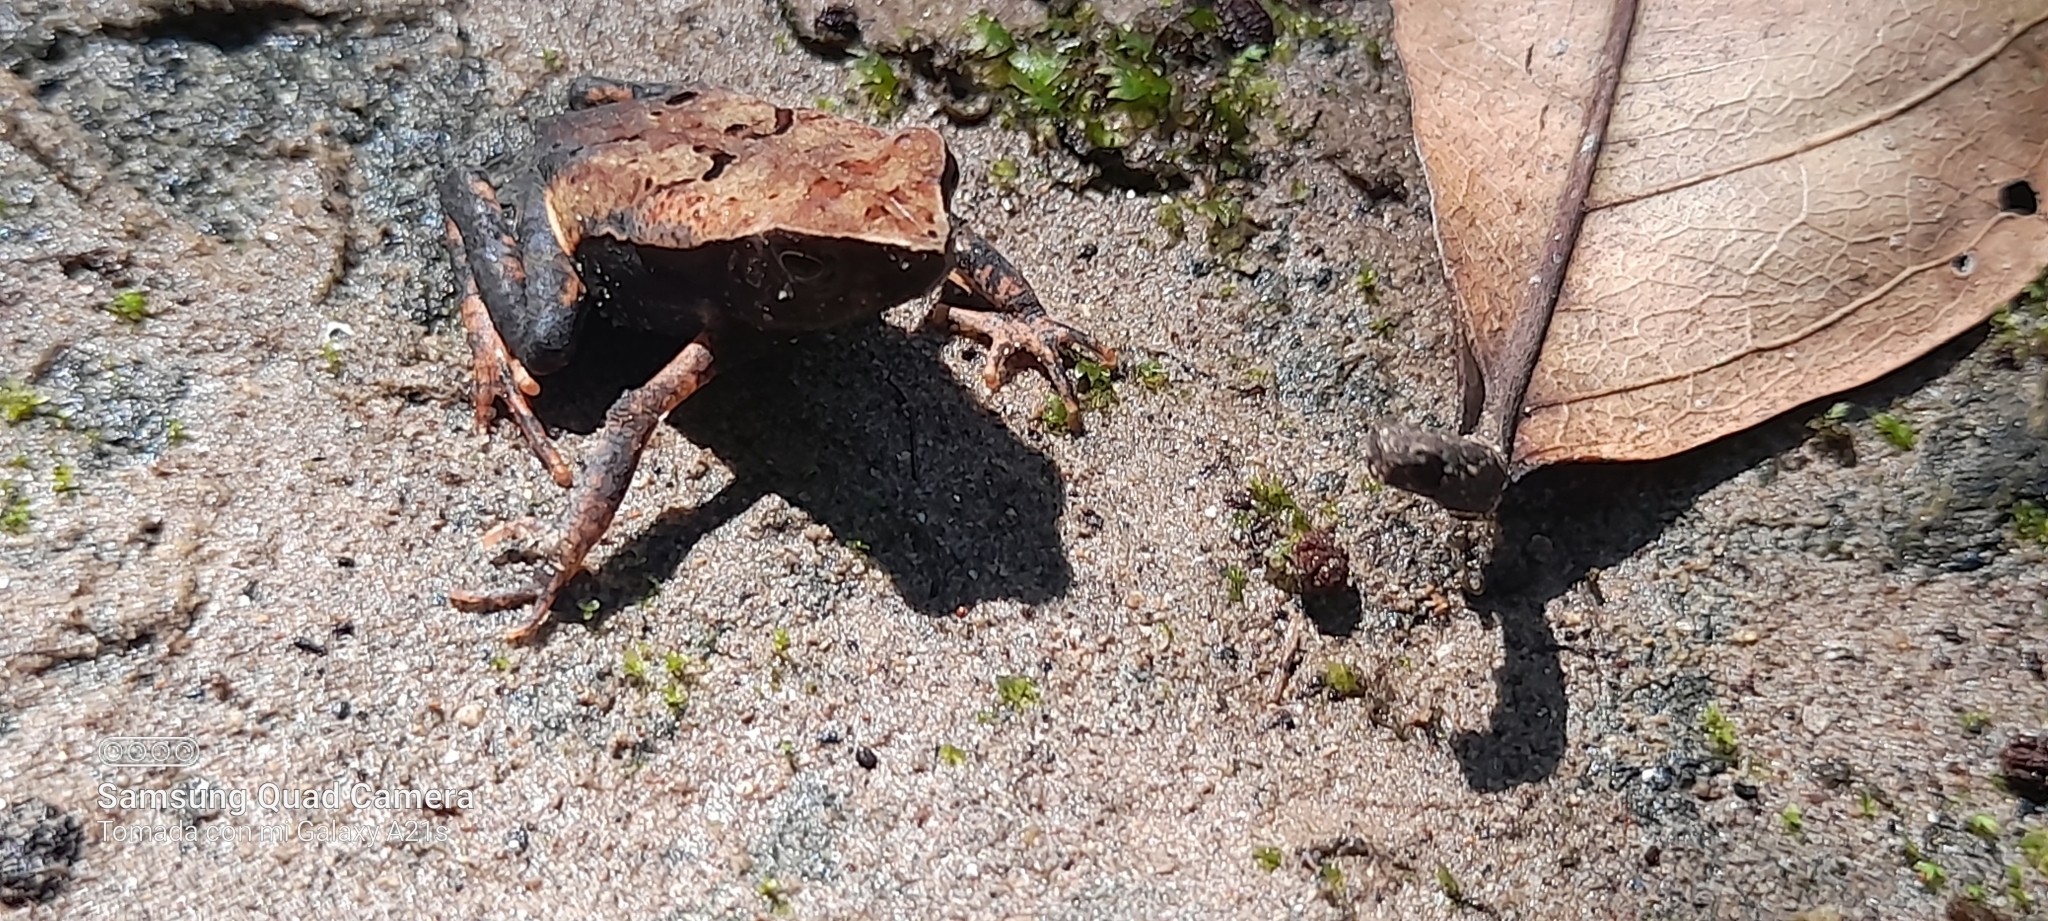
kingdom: Animalia
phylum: Chordata
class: Amphibia
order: Anura
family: Bufonidae
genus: Rhaebo
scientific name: Rhaebo haematiticus
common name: Truando toad
